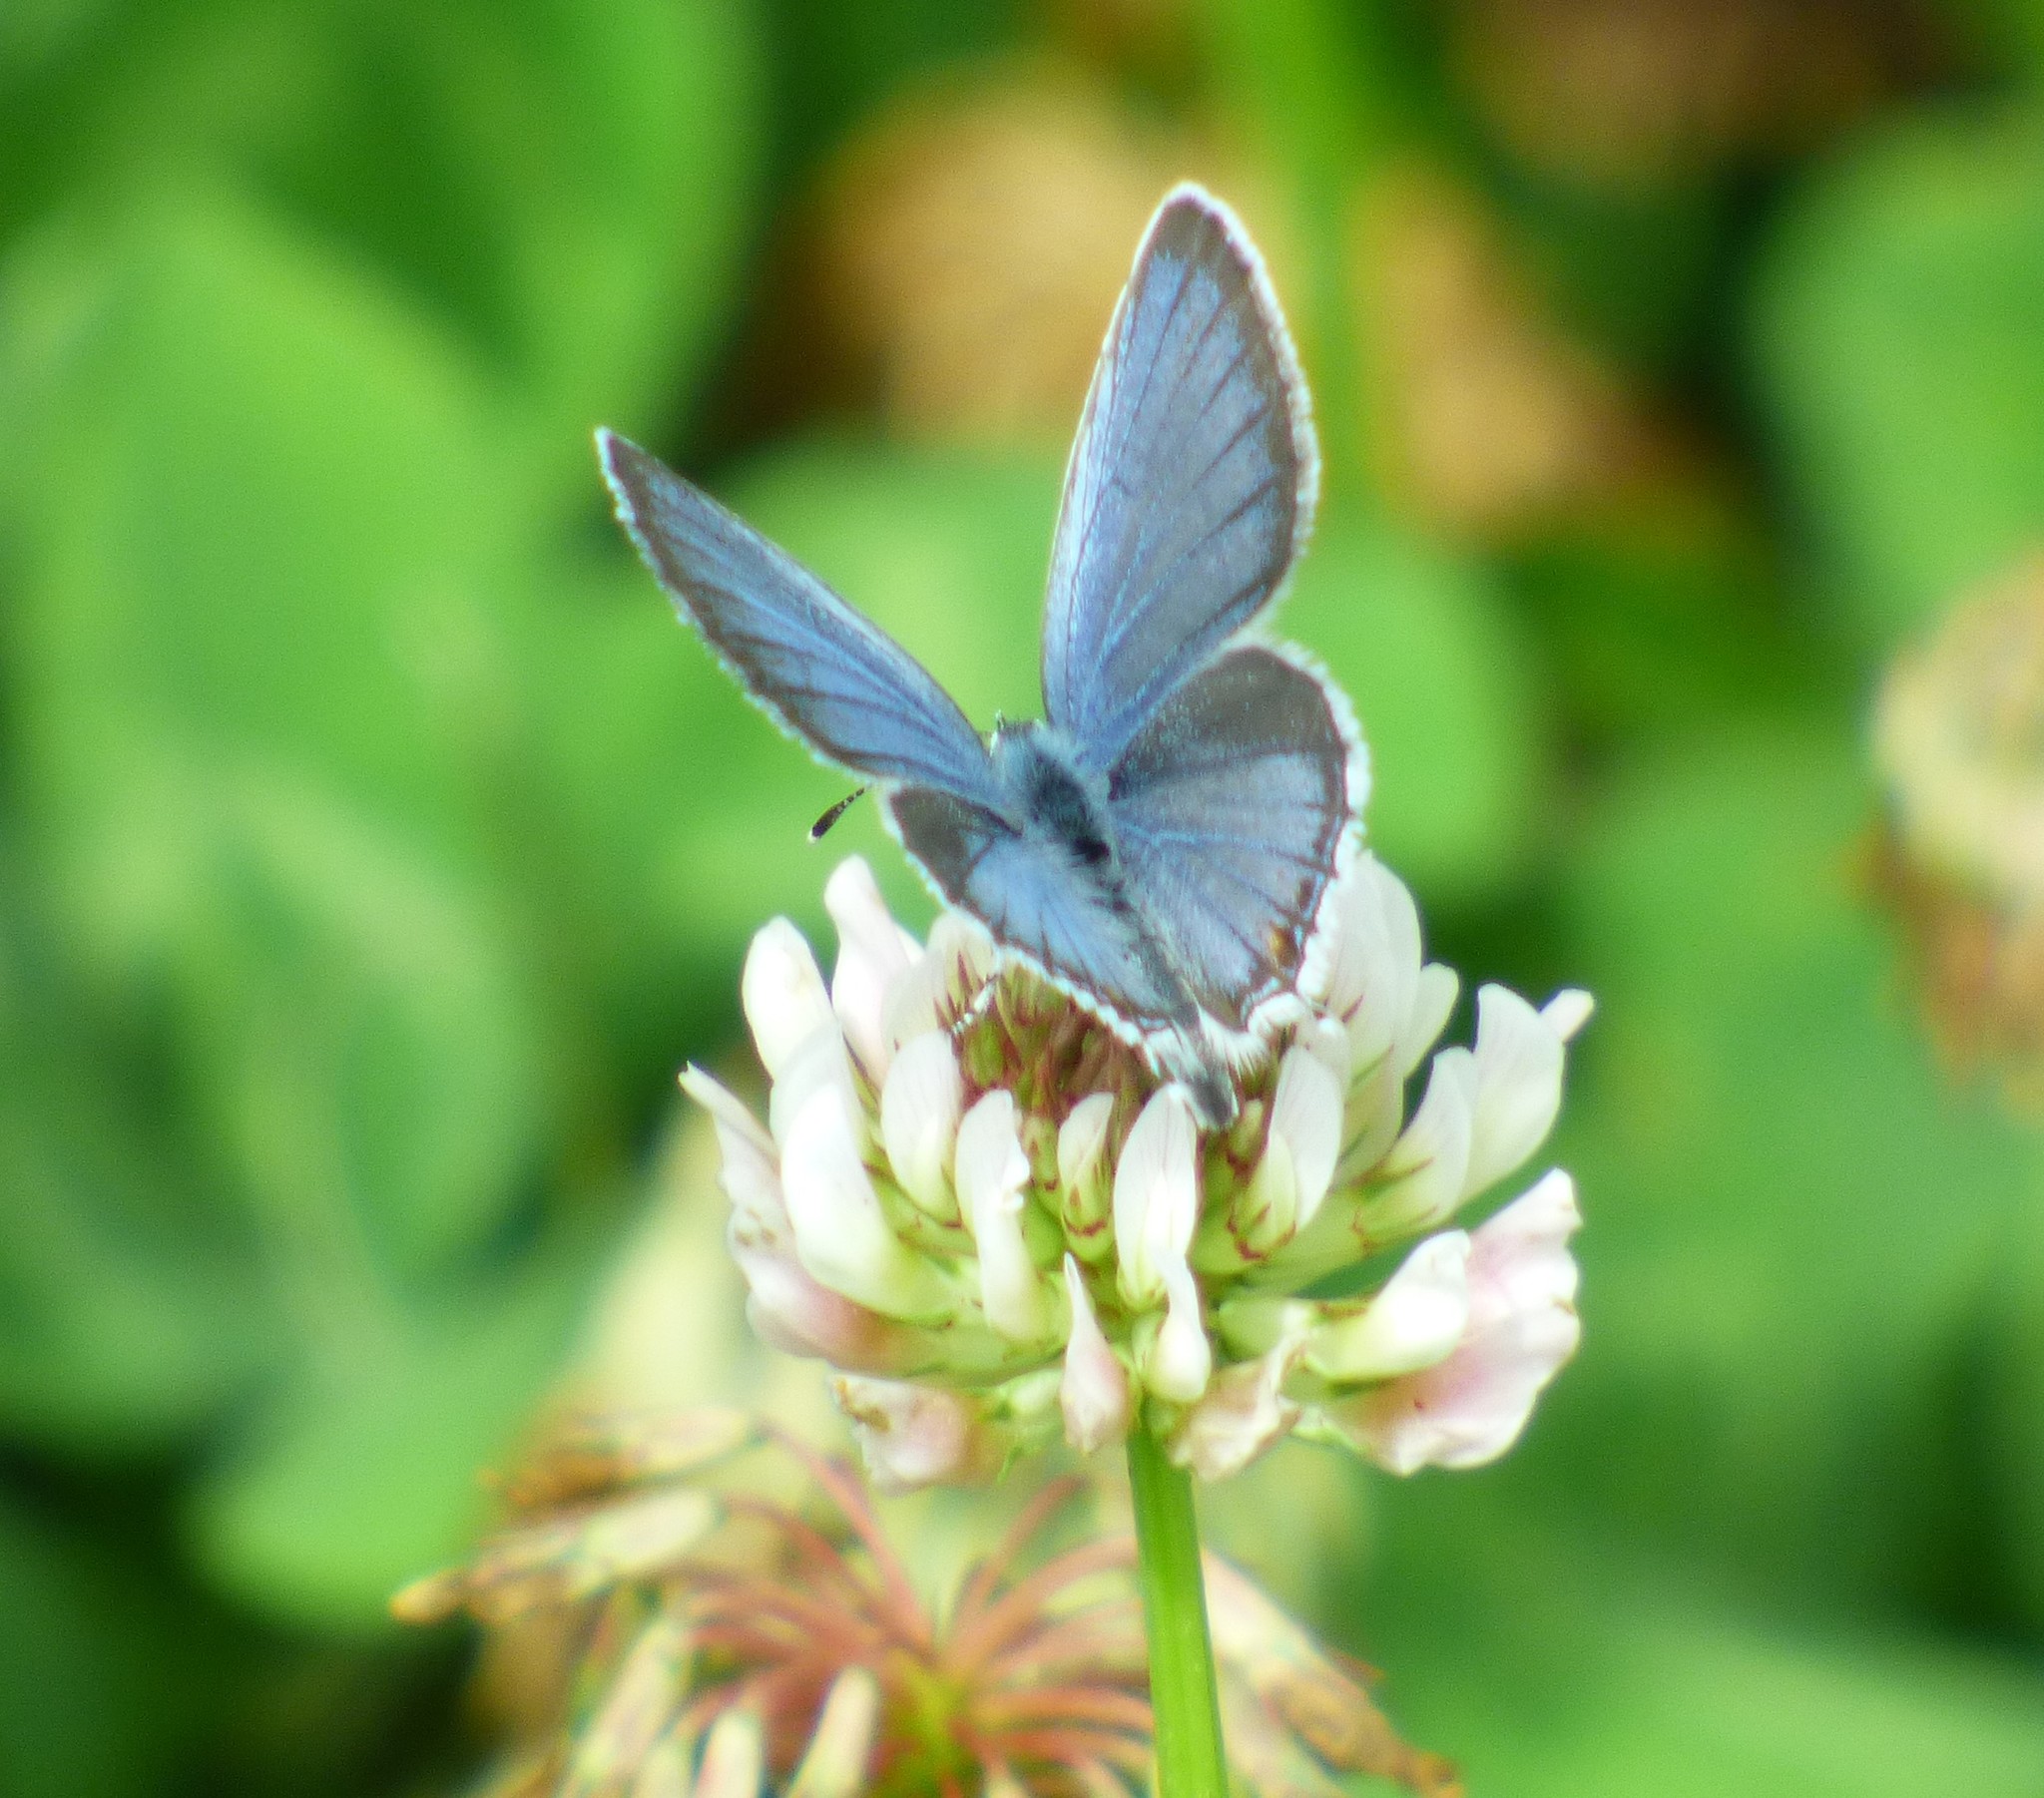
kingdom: Animalia
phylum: Arthropoda
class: Insecta
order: Lepidoptera
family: Lycaenidae
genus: Elkalyce
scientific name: Elkalyce comyntas
